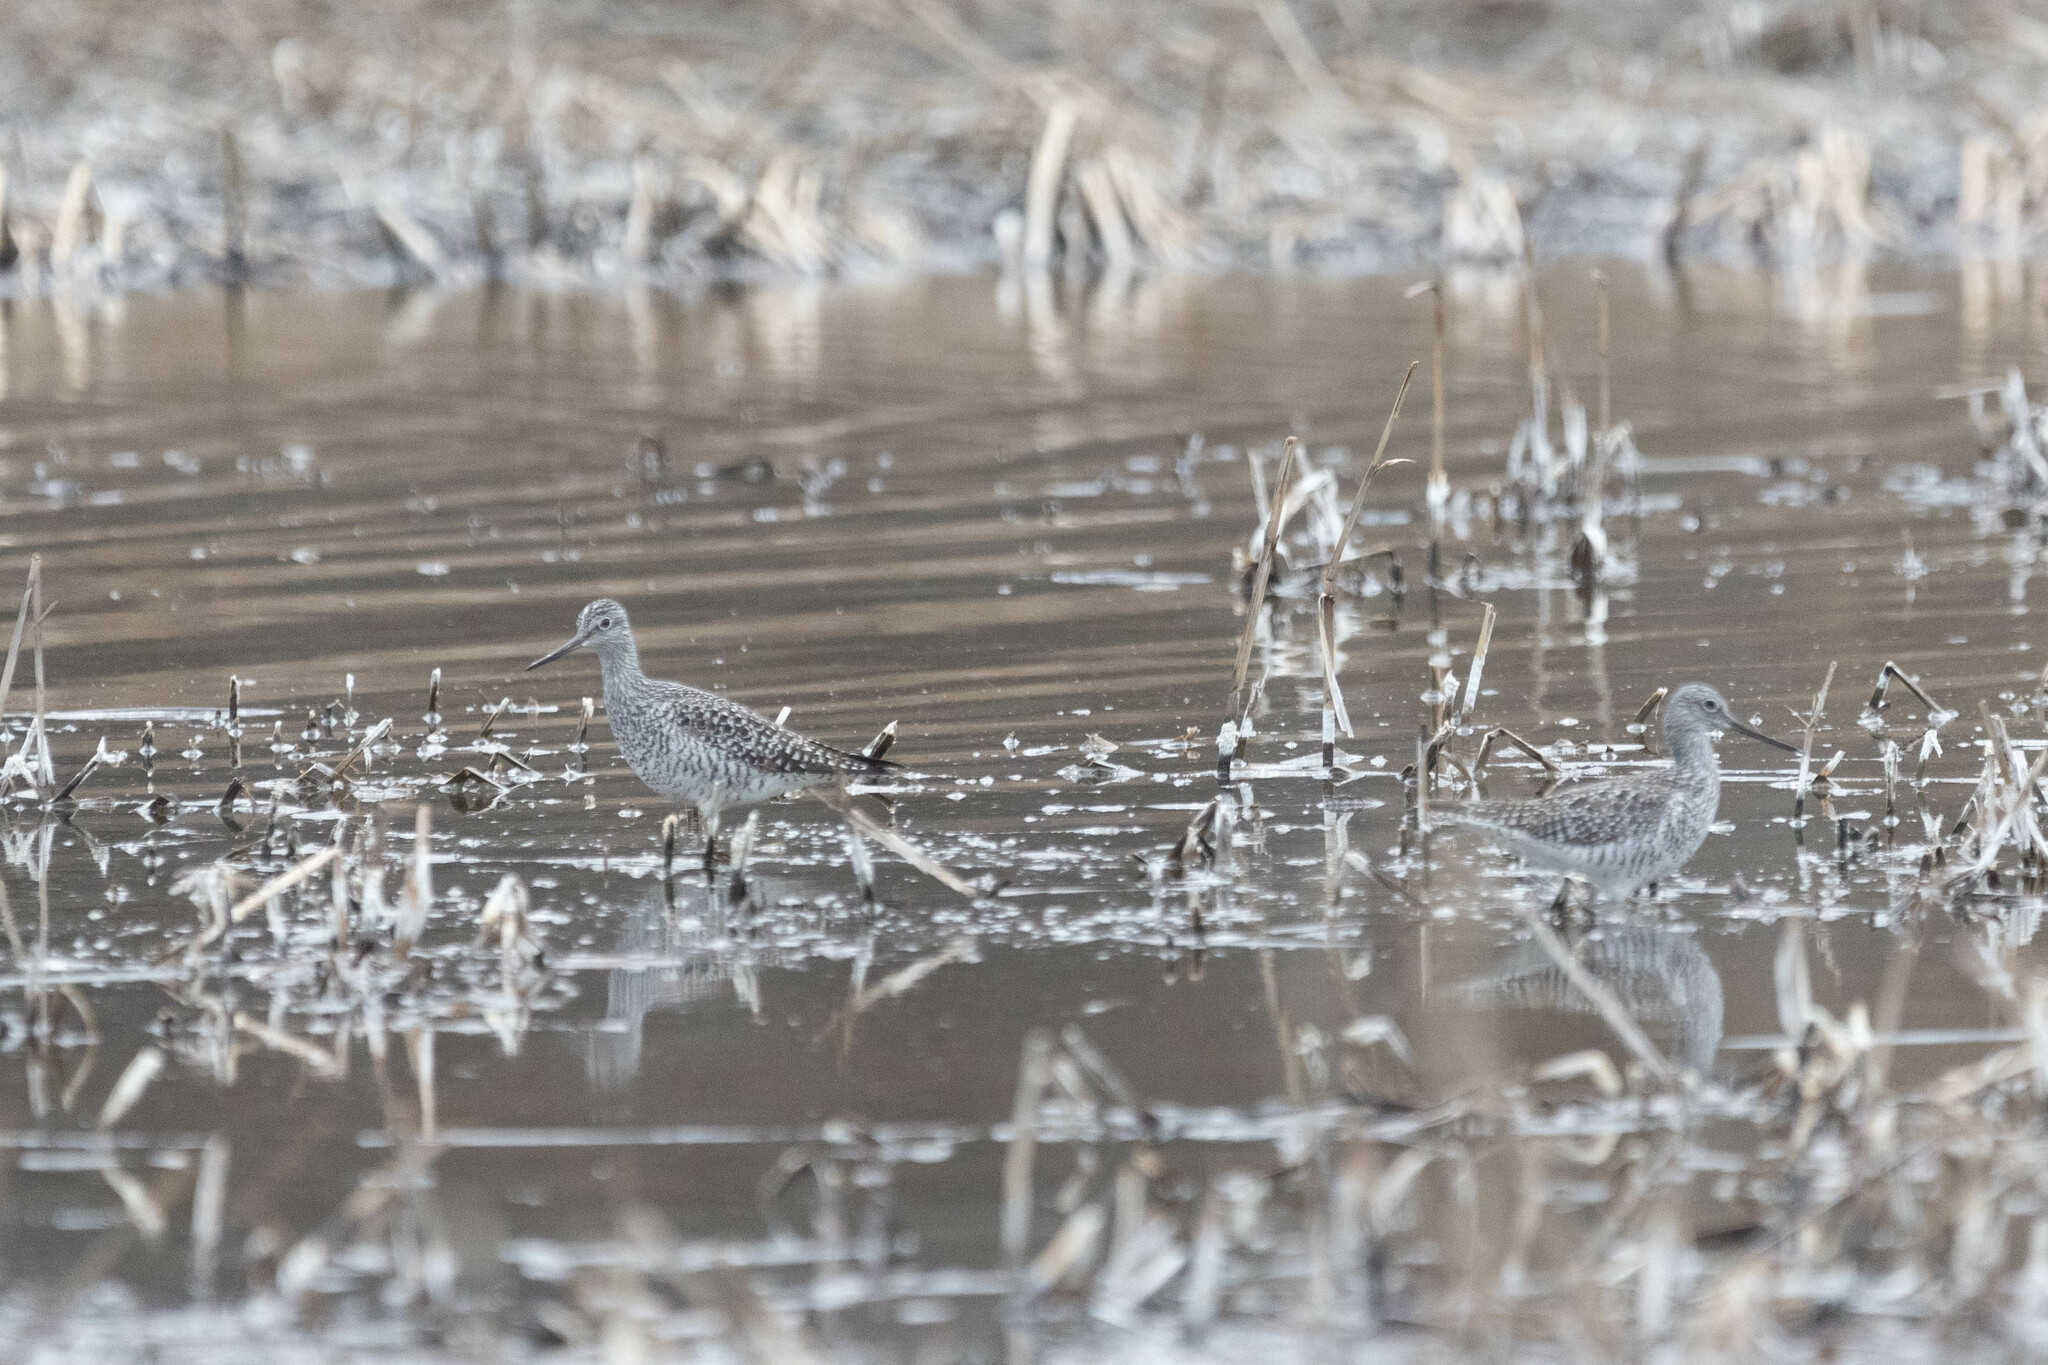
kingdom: Animalia
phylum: Chordata
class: Aves
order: Charadriiformes
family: Scolopacidae
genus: Tringa
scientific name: Tringa melanoleuca
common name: Greater yellowlegs
